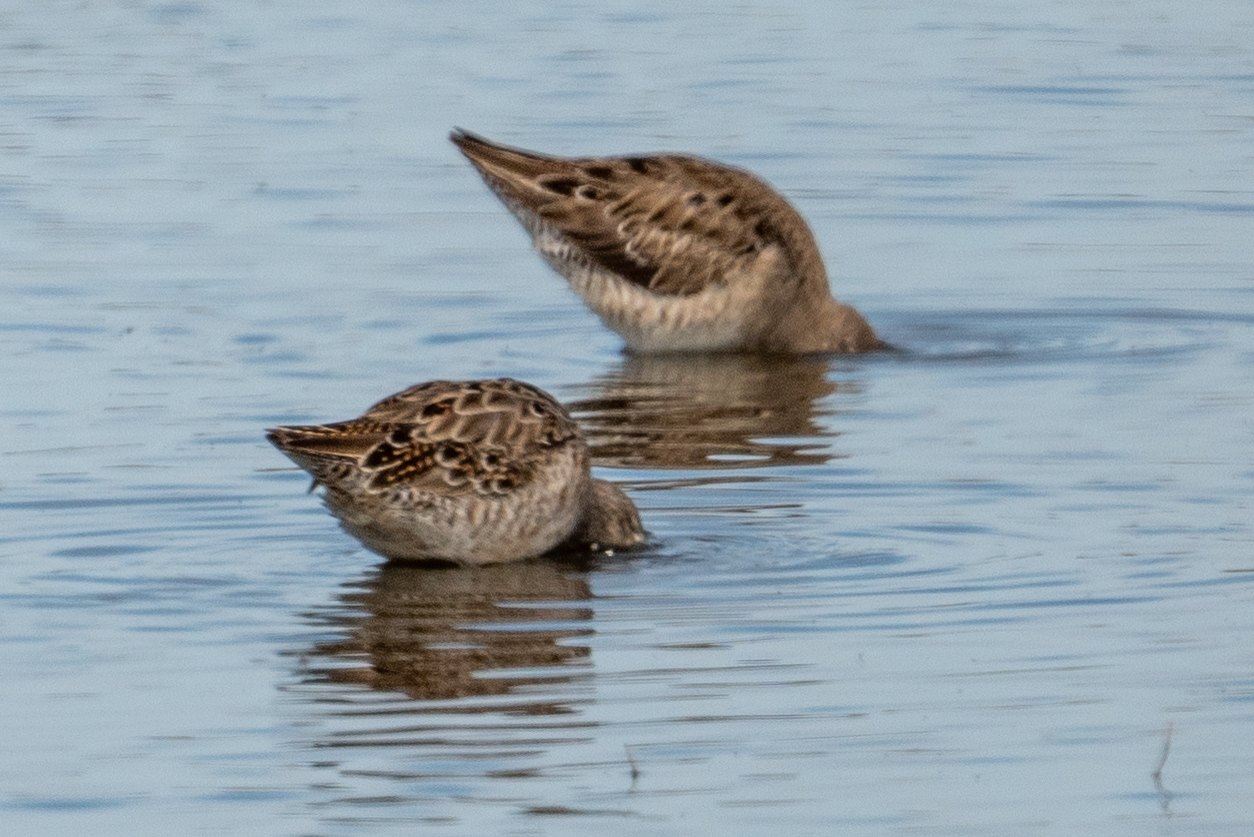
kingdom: Animalia
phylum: Chordata
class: Aves
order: Charadriiformes
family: Scolopacidae
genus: Limnodromus
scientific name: Limnodromus scolopaceus
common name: Long-billed dowitcher
